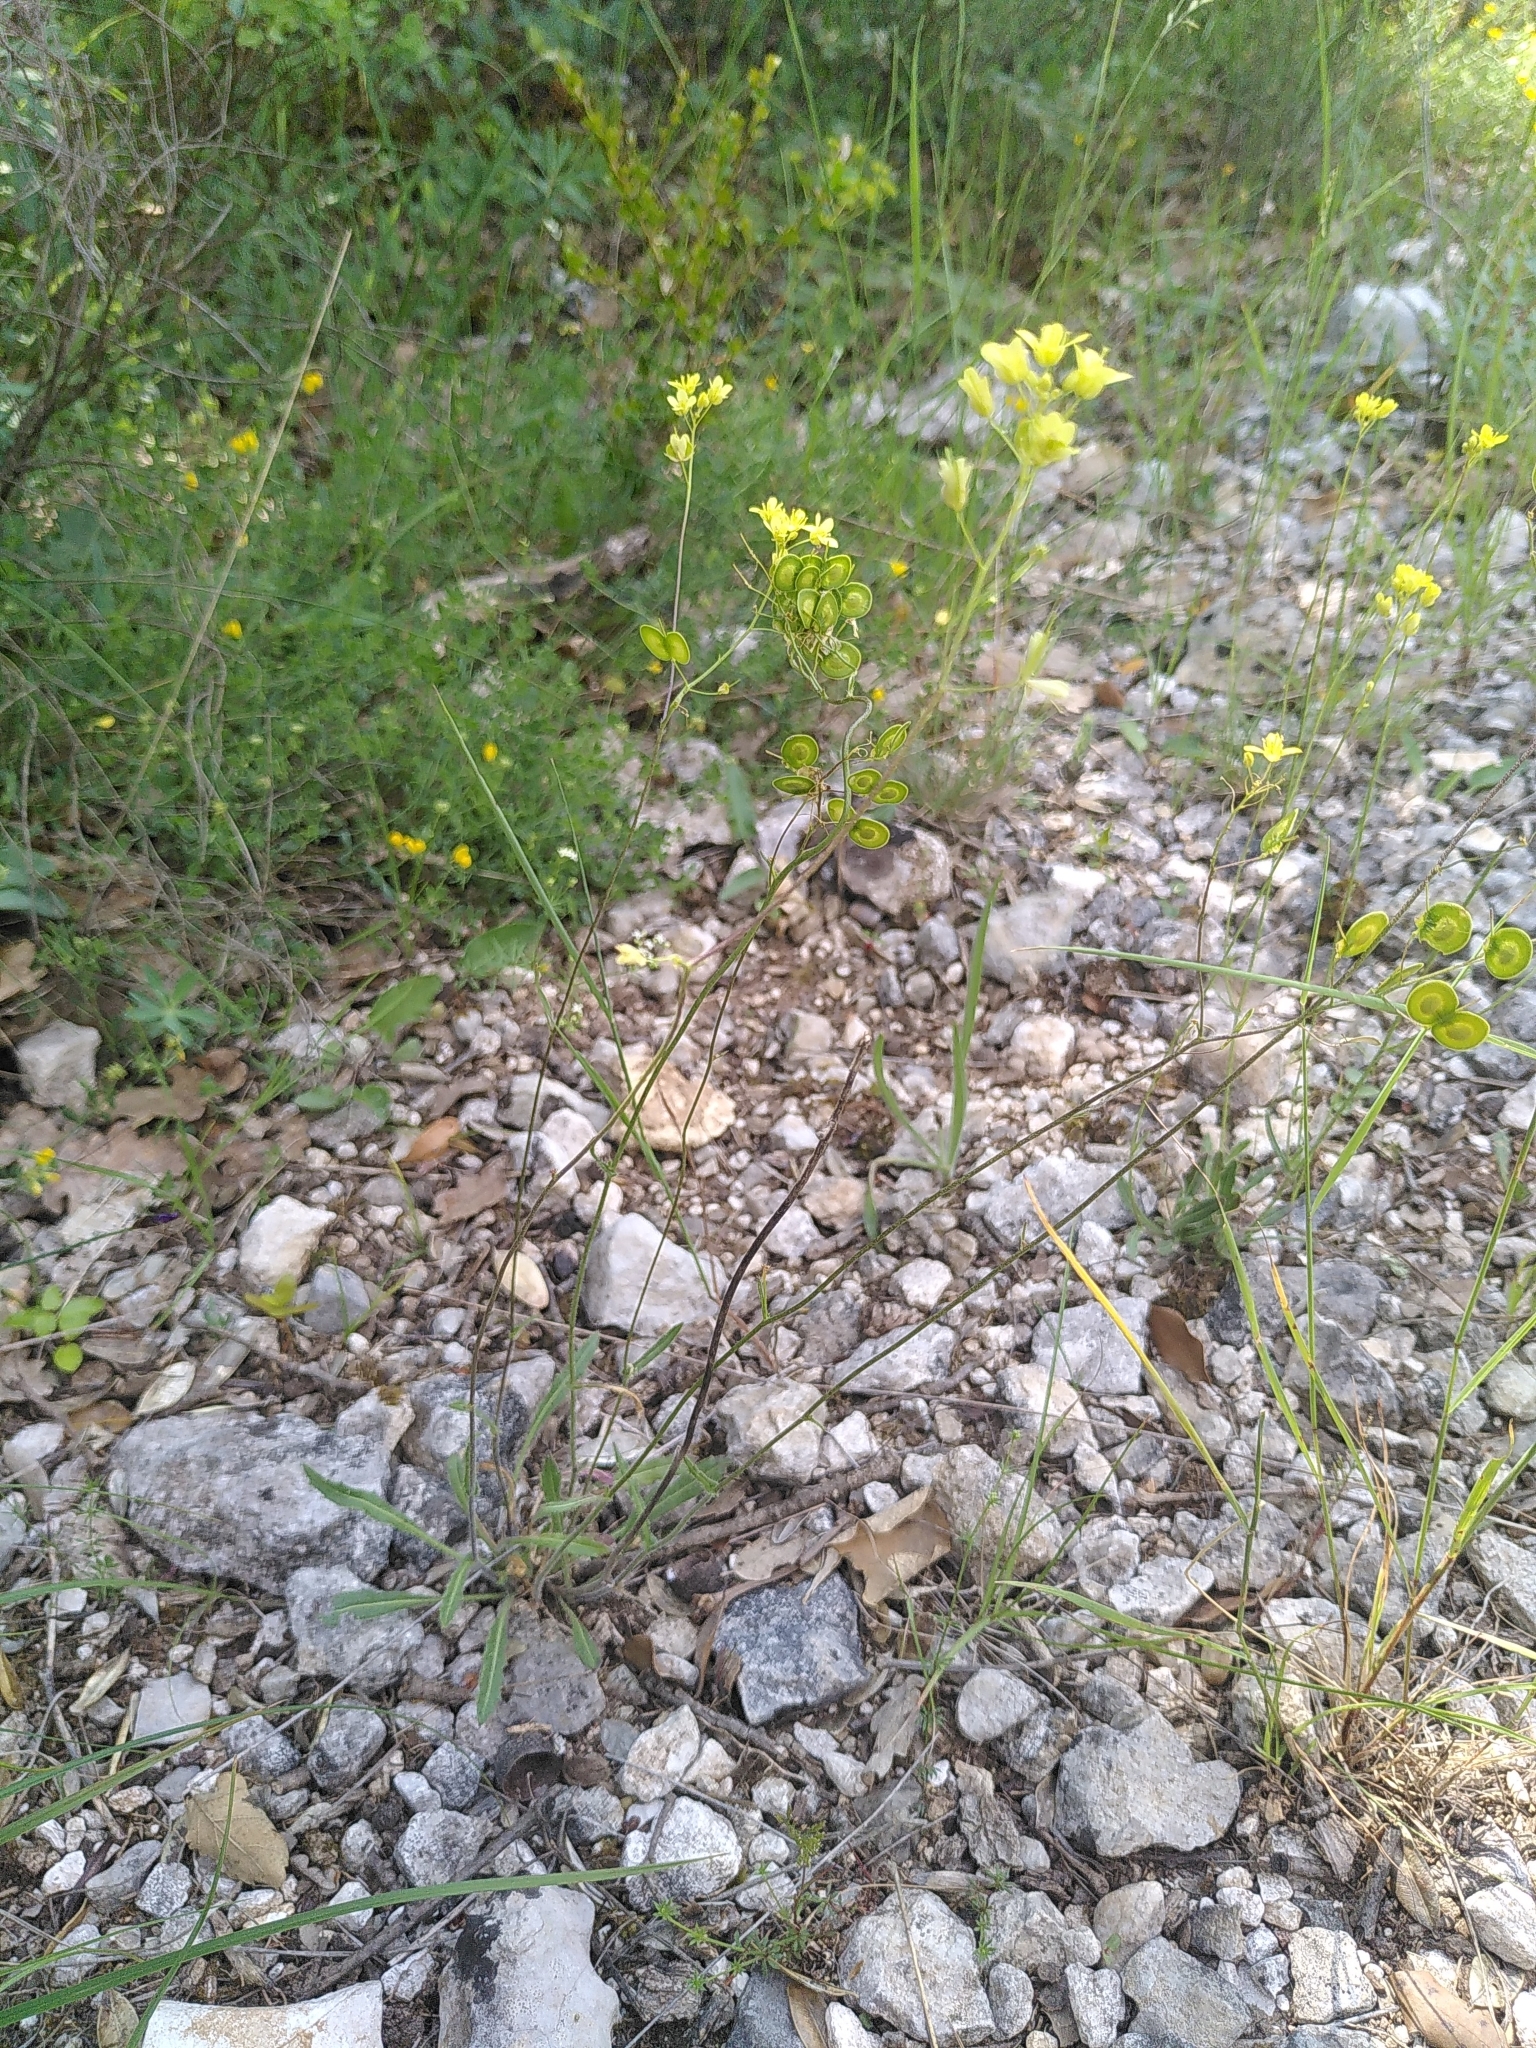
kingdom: Plantae
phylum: Tracheophyta
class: Magnoliopsida
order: Brassicales
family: Brassicaceae
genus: Biscutella
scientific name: Biscutella laevigata
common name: Buckler mustard
